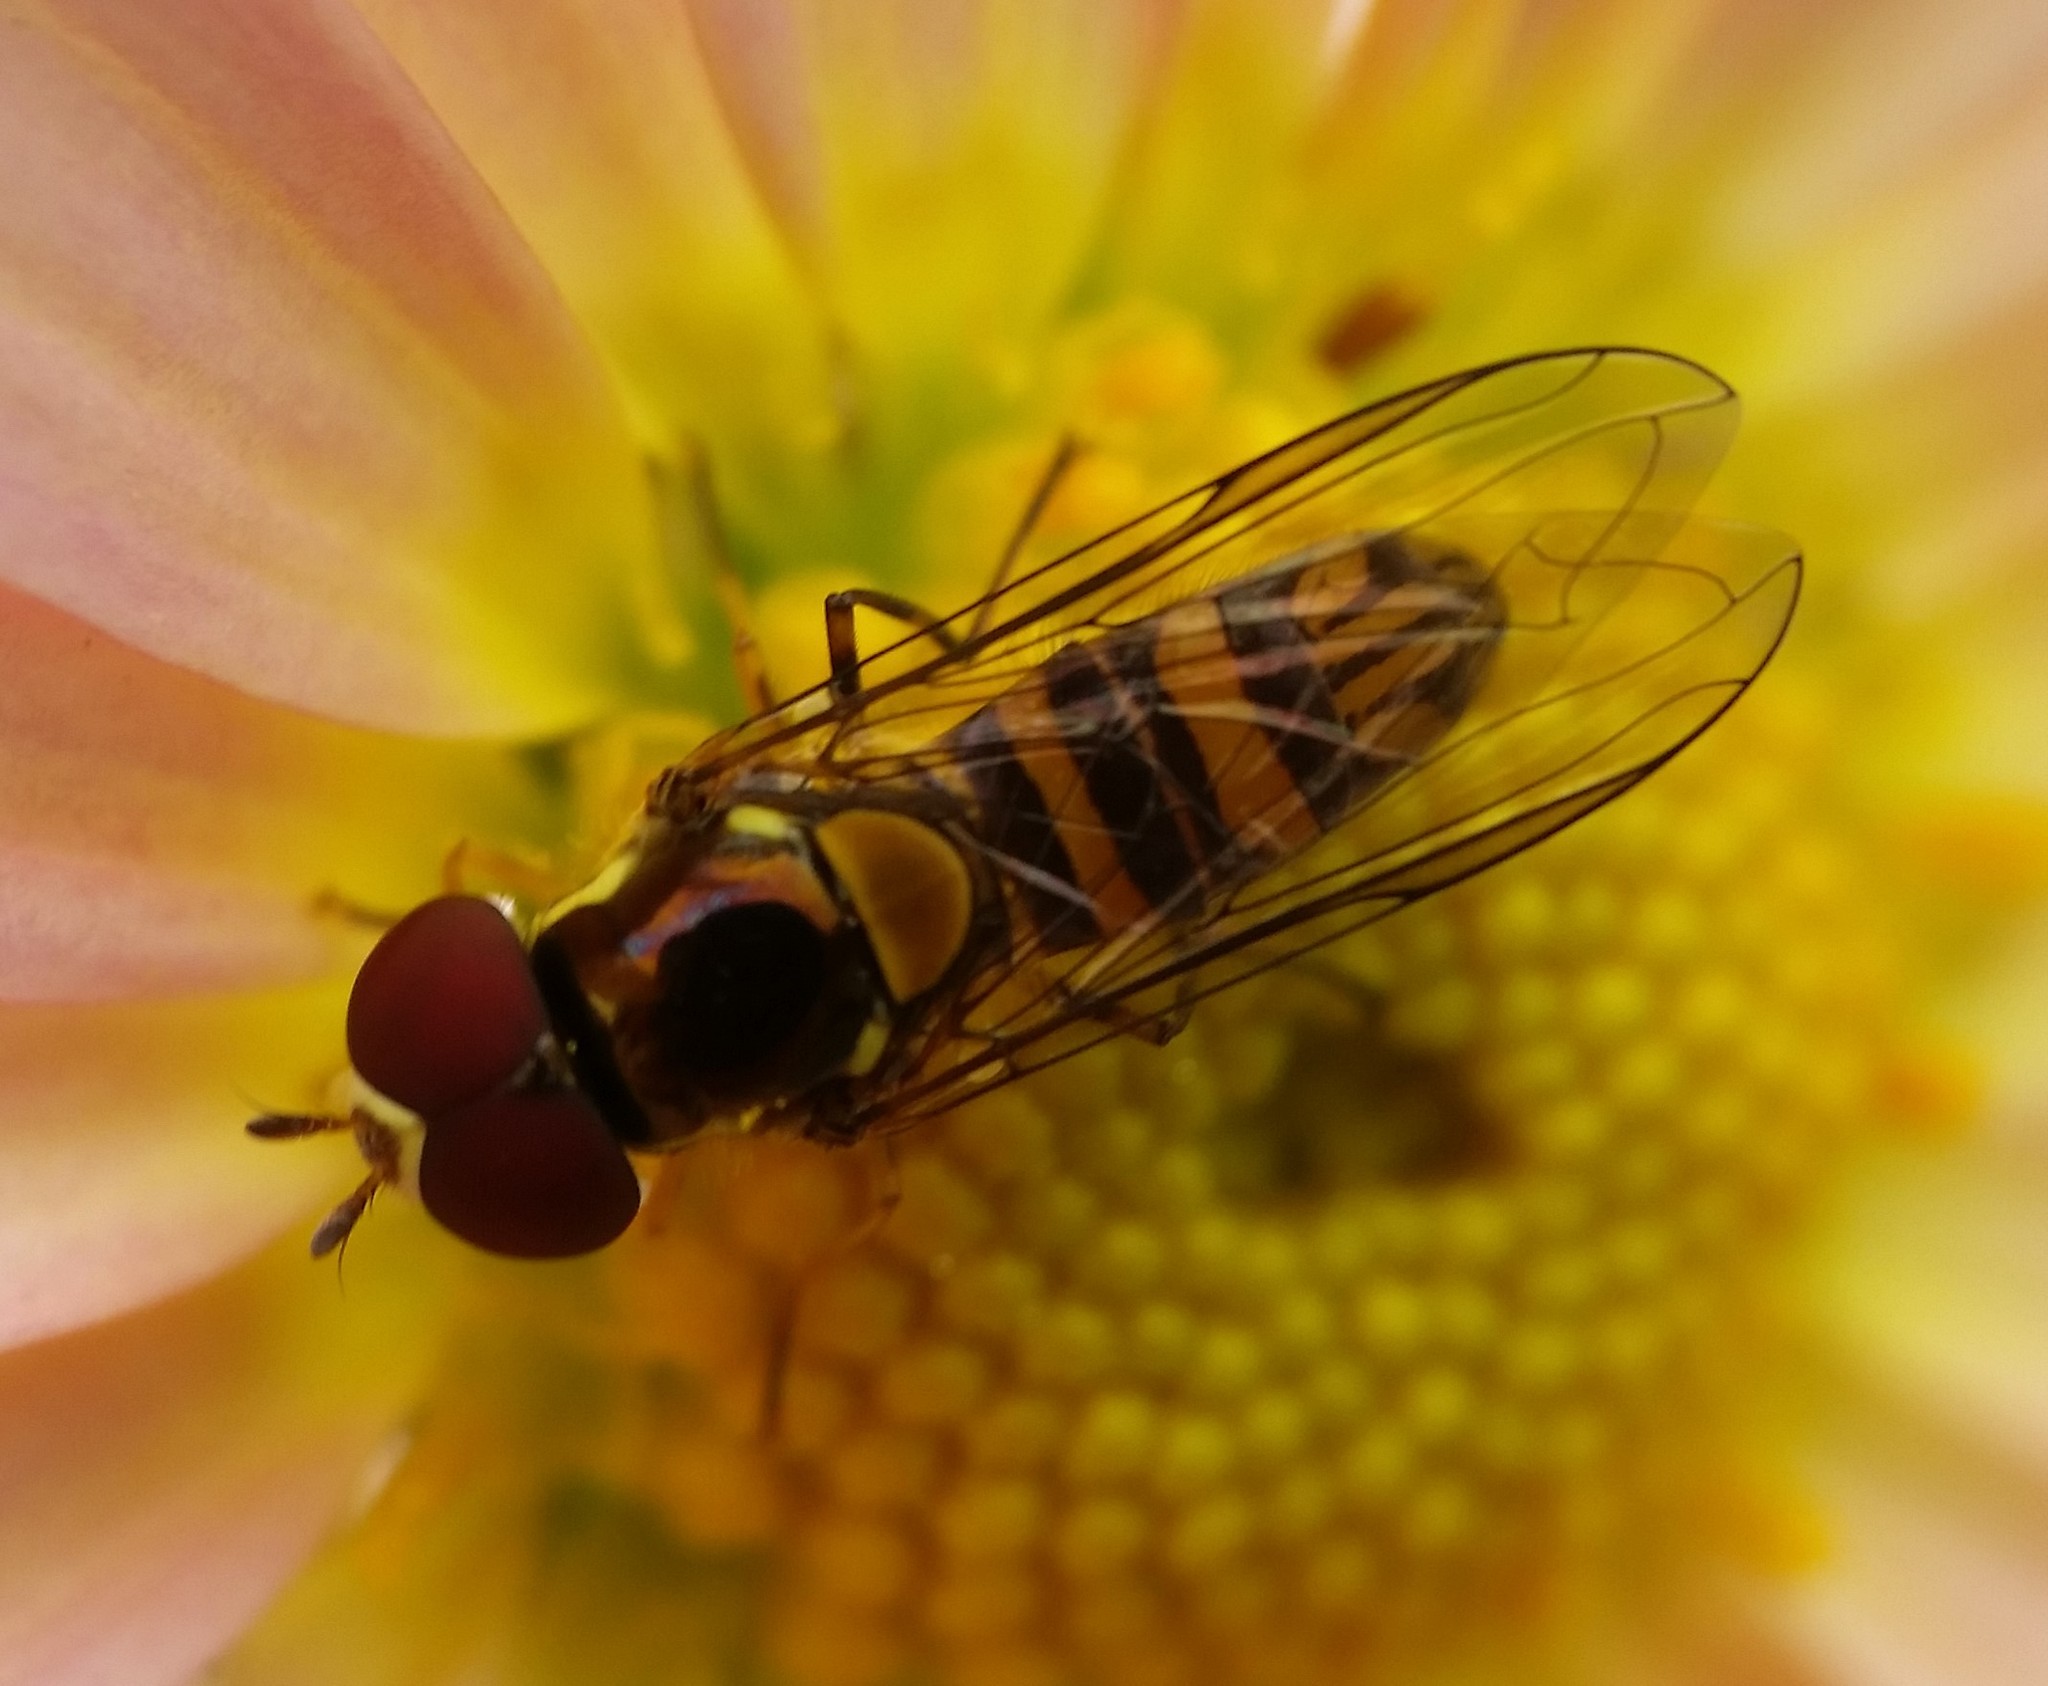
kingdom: Animalia
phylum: Arthropoda
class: Insecta
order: Diptera
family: Syrphidae
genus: Allograpta
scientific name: Allograpta obliqua
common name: Common oblique syrphid
